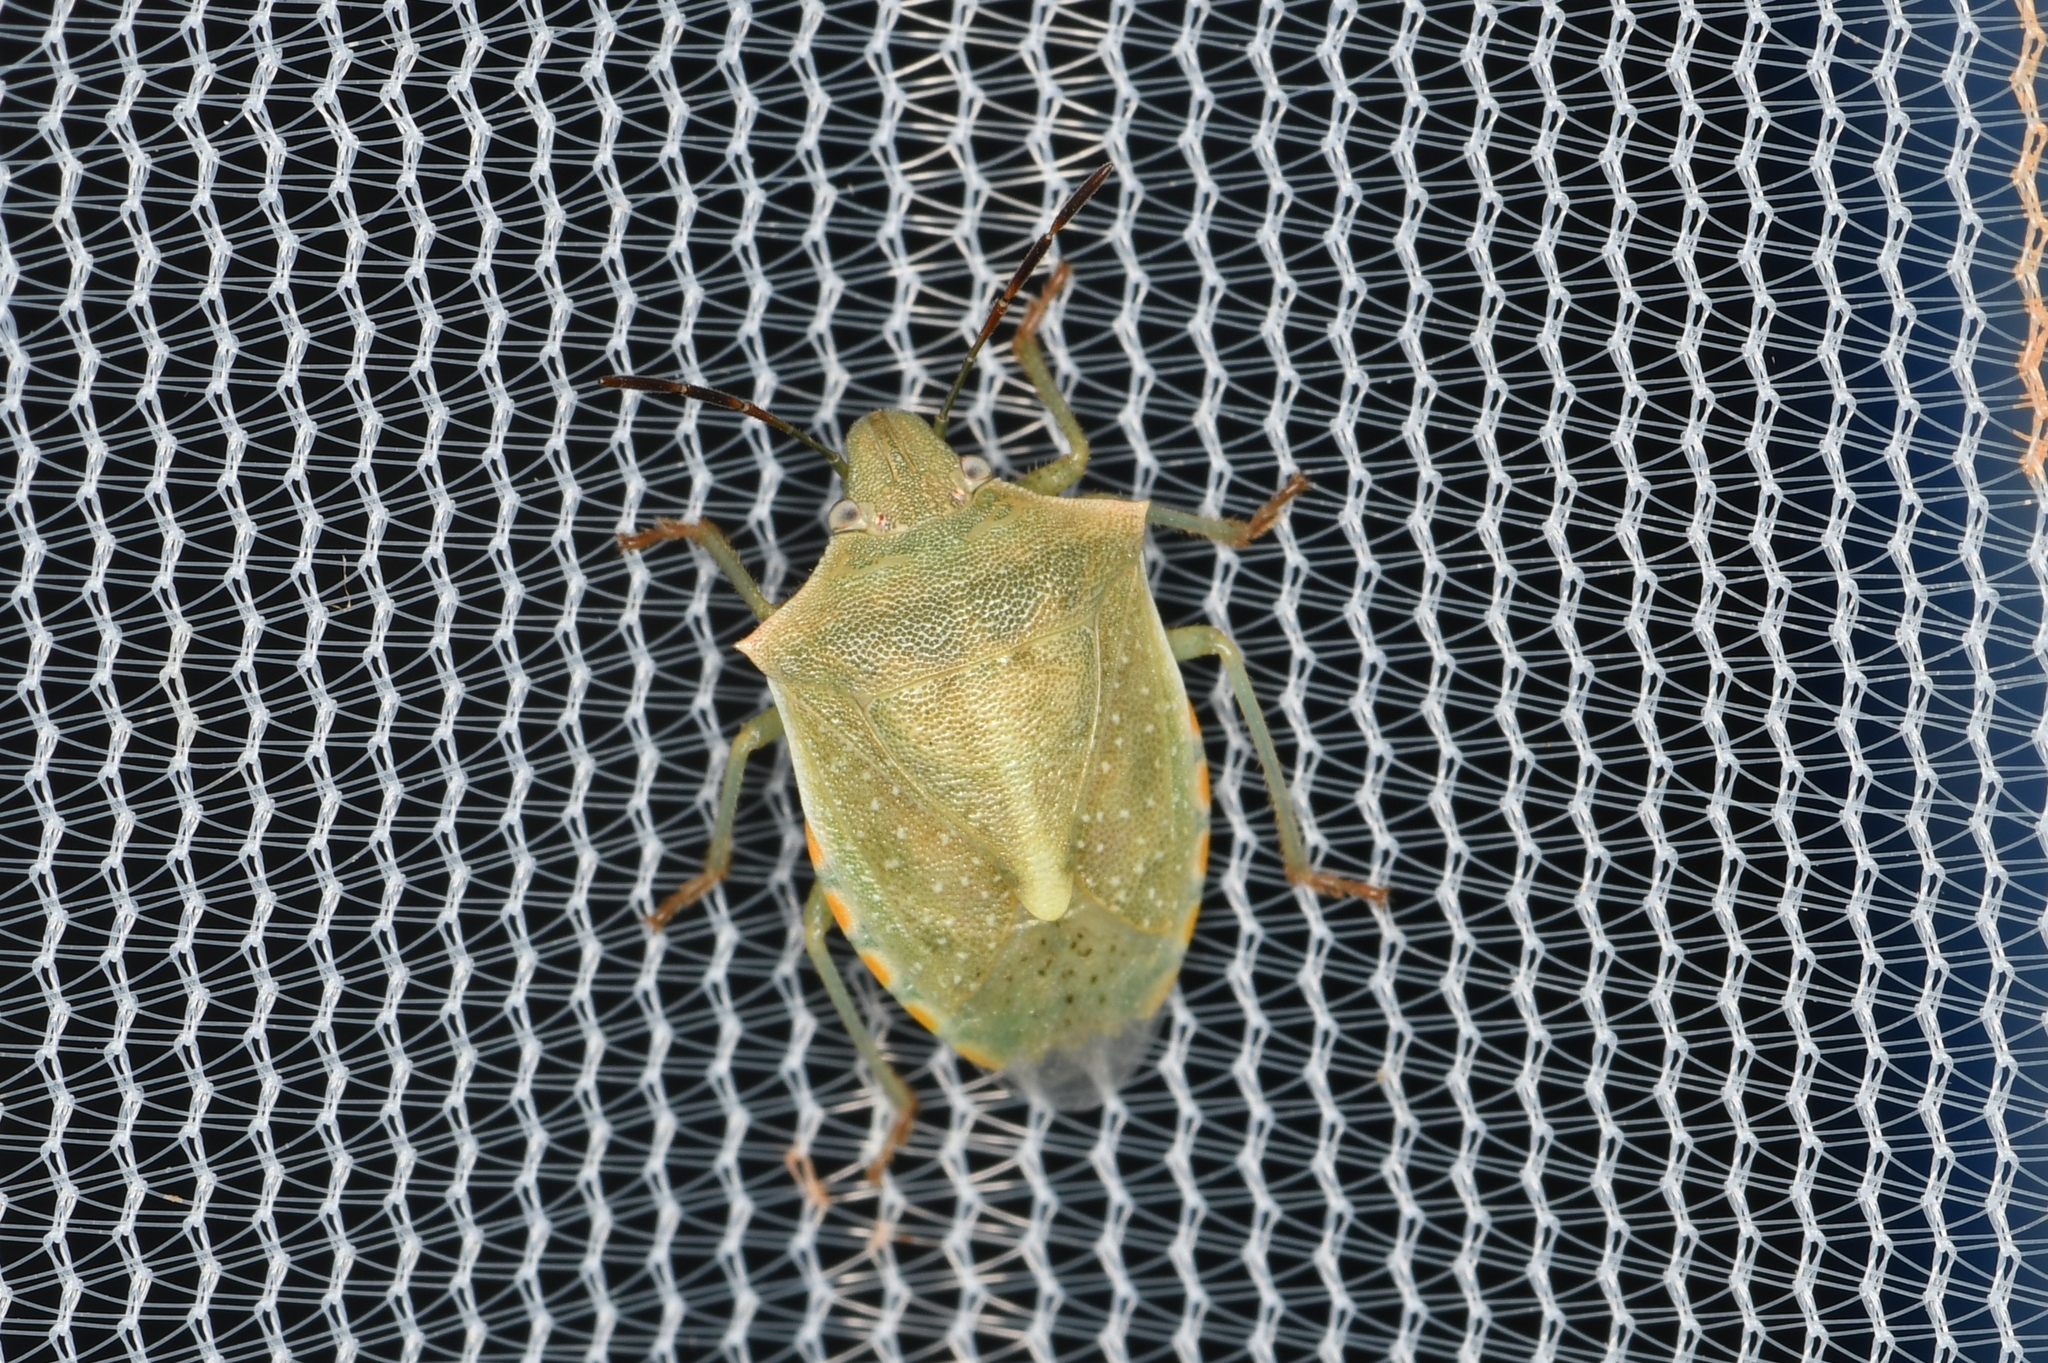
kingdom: Animalia
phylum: Arthropoda
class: Insecta
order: Hemiptera
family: Pentatomidae
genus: Thyanta
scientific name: Thyanta accerra
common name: Stink bug
